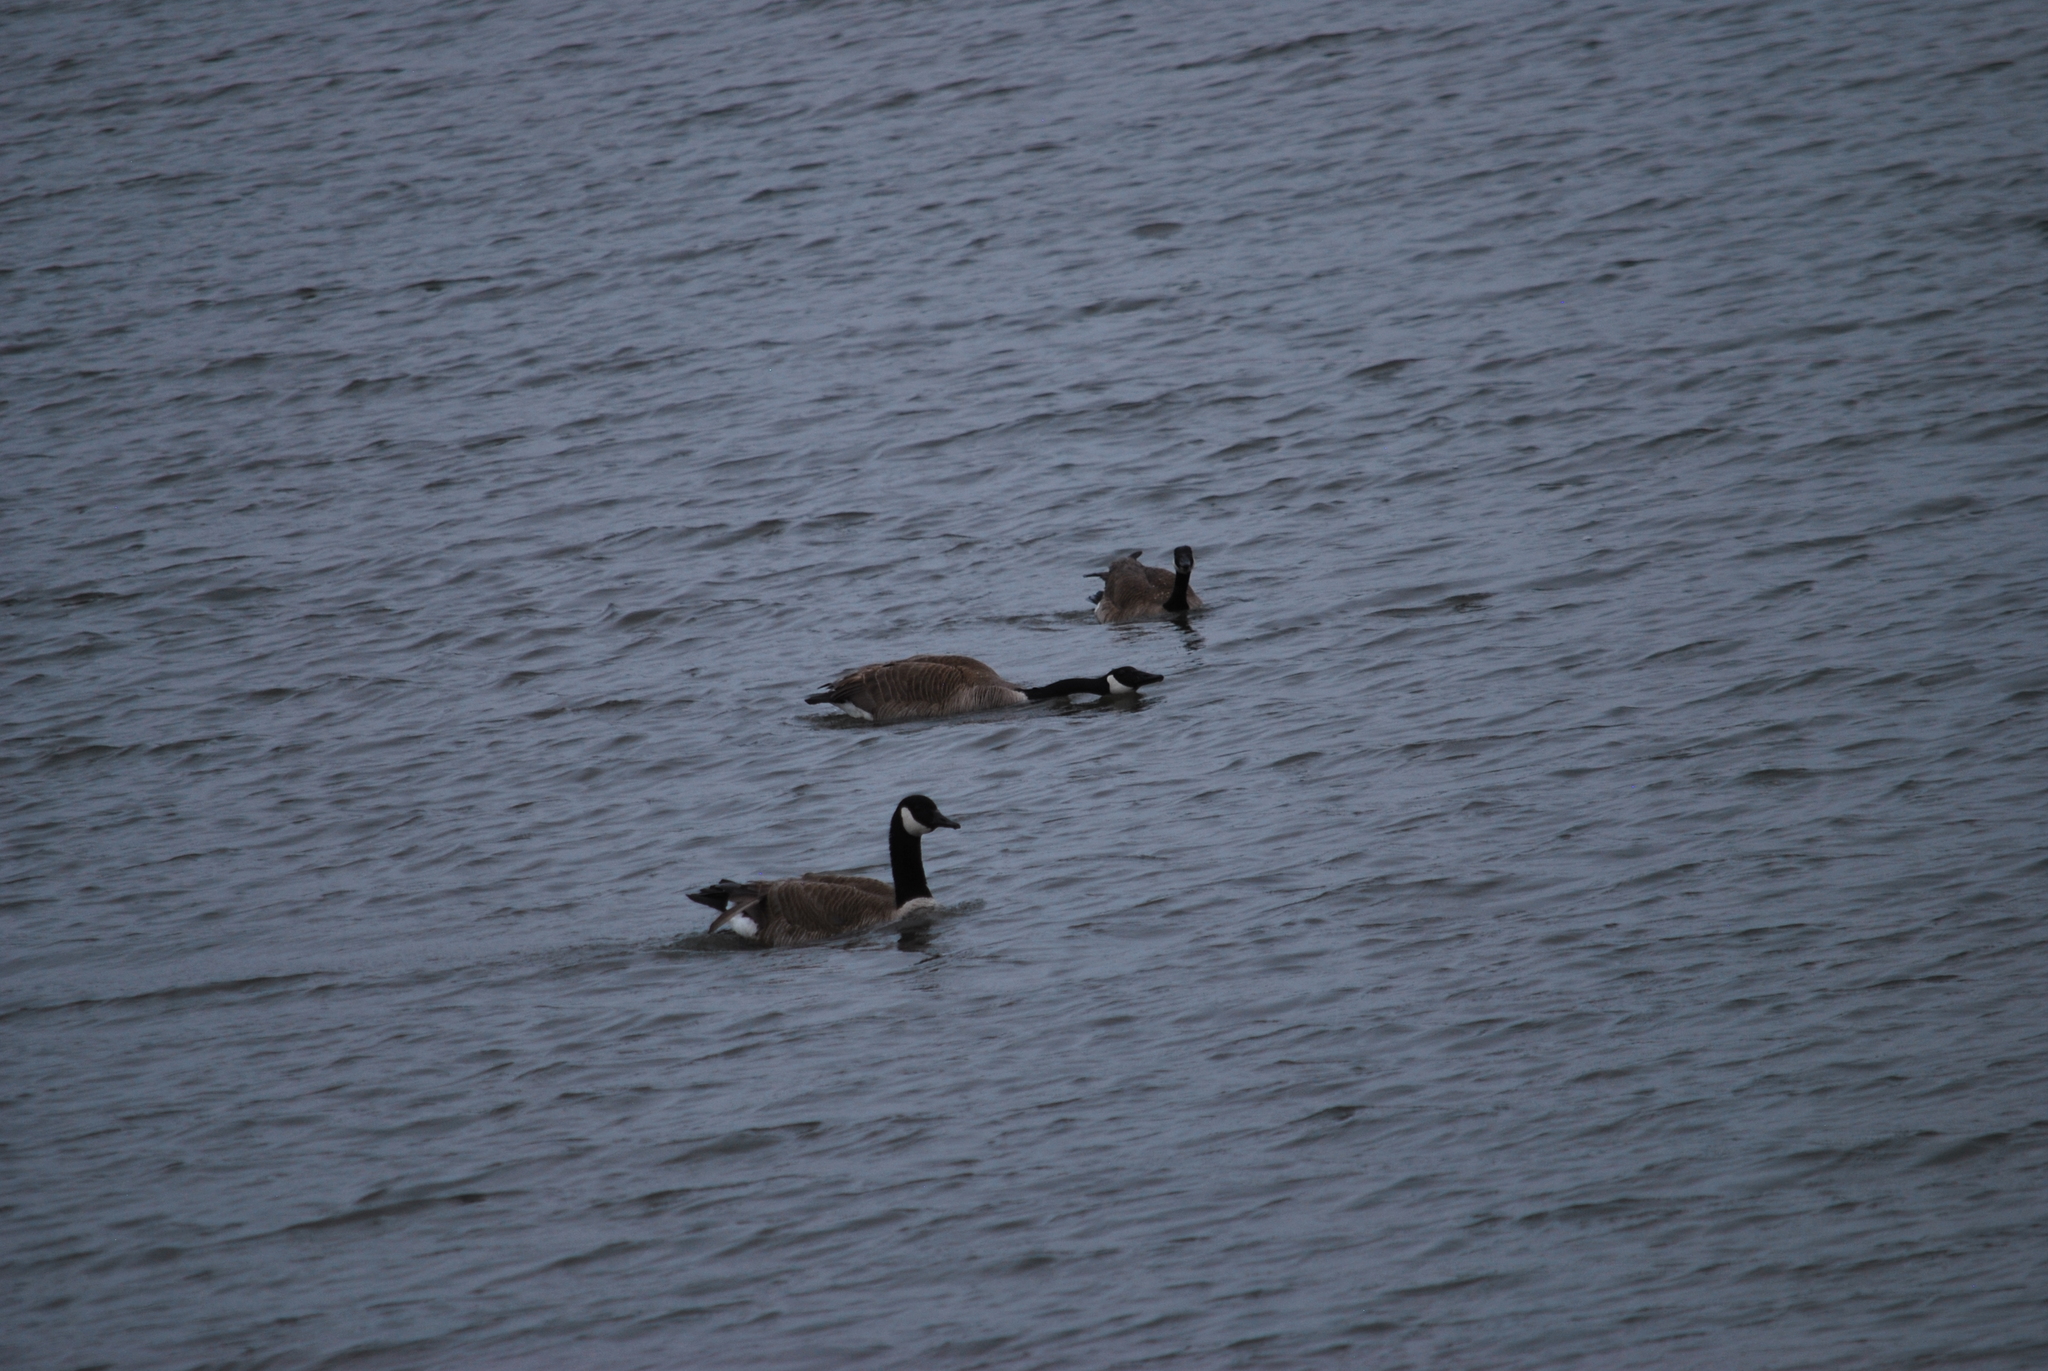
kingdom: Animalia
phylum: Chordata
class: Aves
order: Anseriformes
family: Anatidae
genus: Branta
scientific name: Branta canadensis
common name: Canada goose
